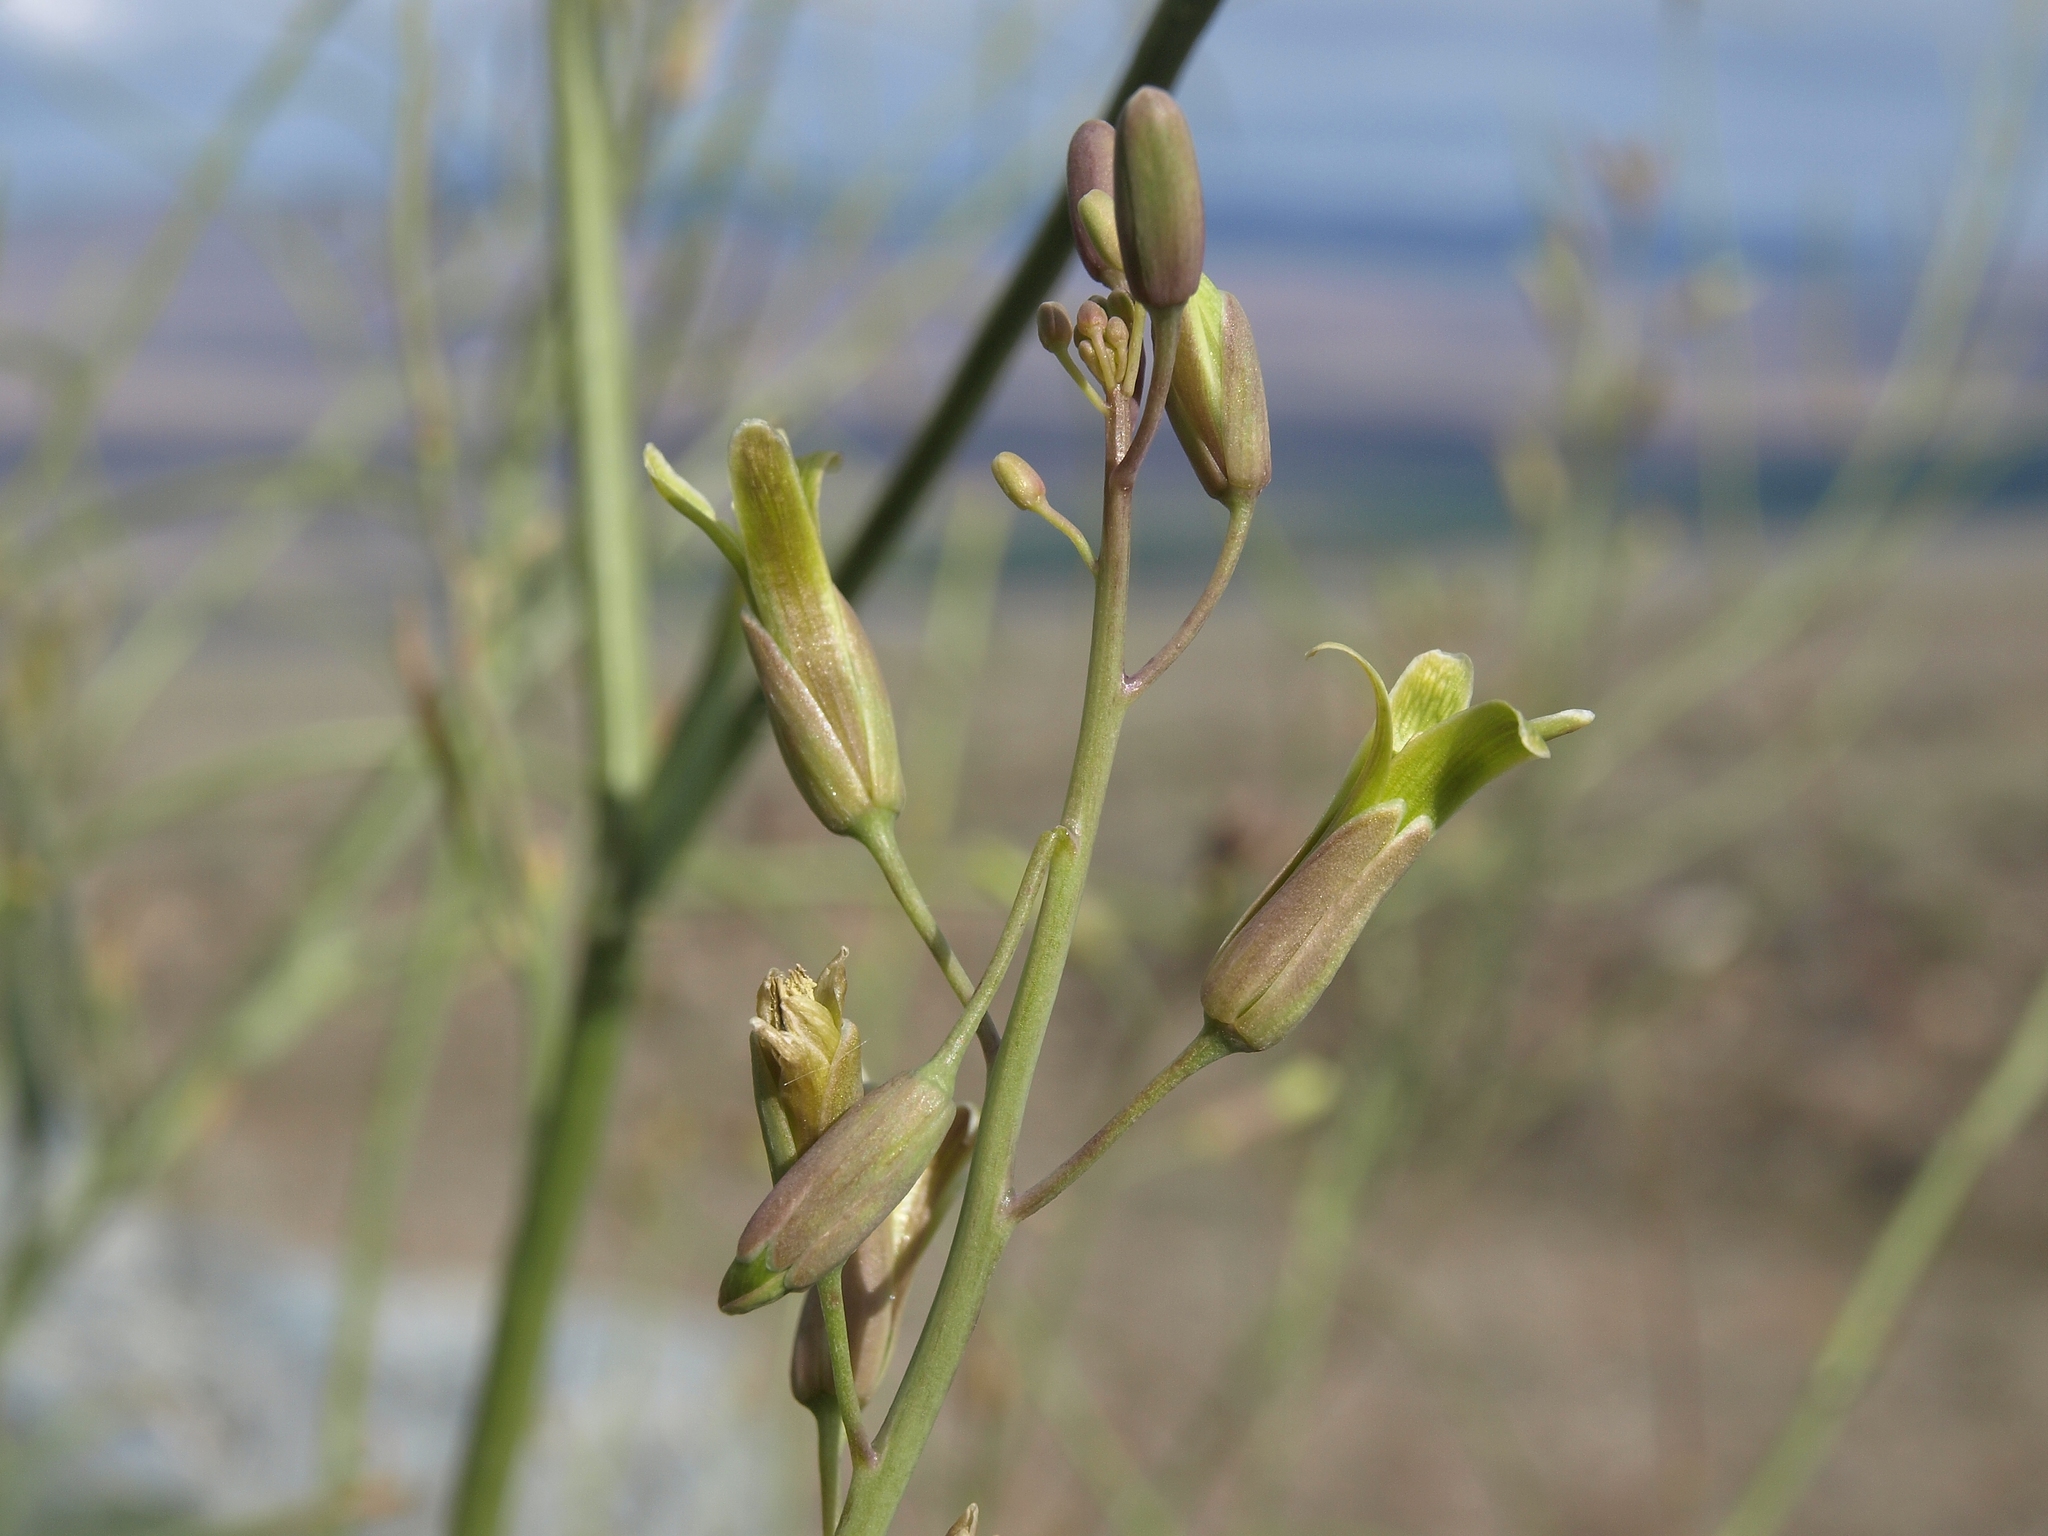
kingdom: Plantae
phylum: Tracheophyta
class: Magnoliopsida
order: Brassicales
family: Brassicaceae
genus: Streptanthus
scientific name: Streptanthus glaucus
